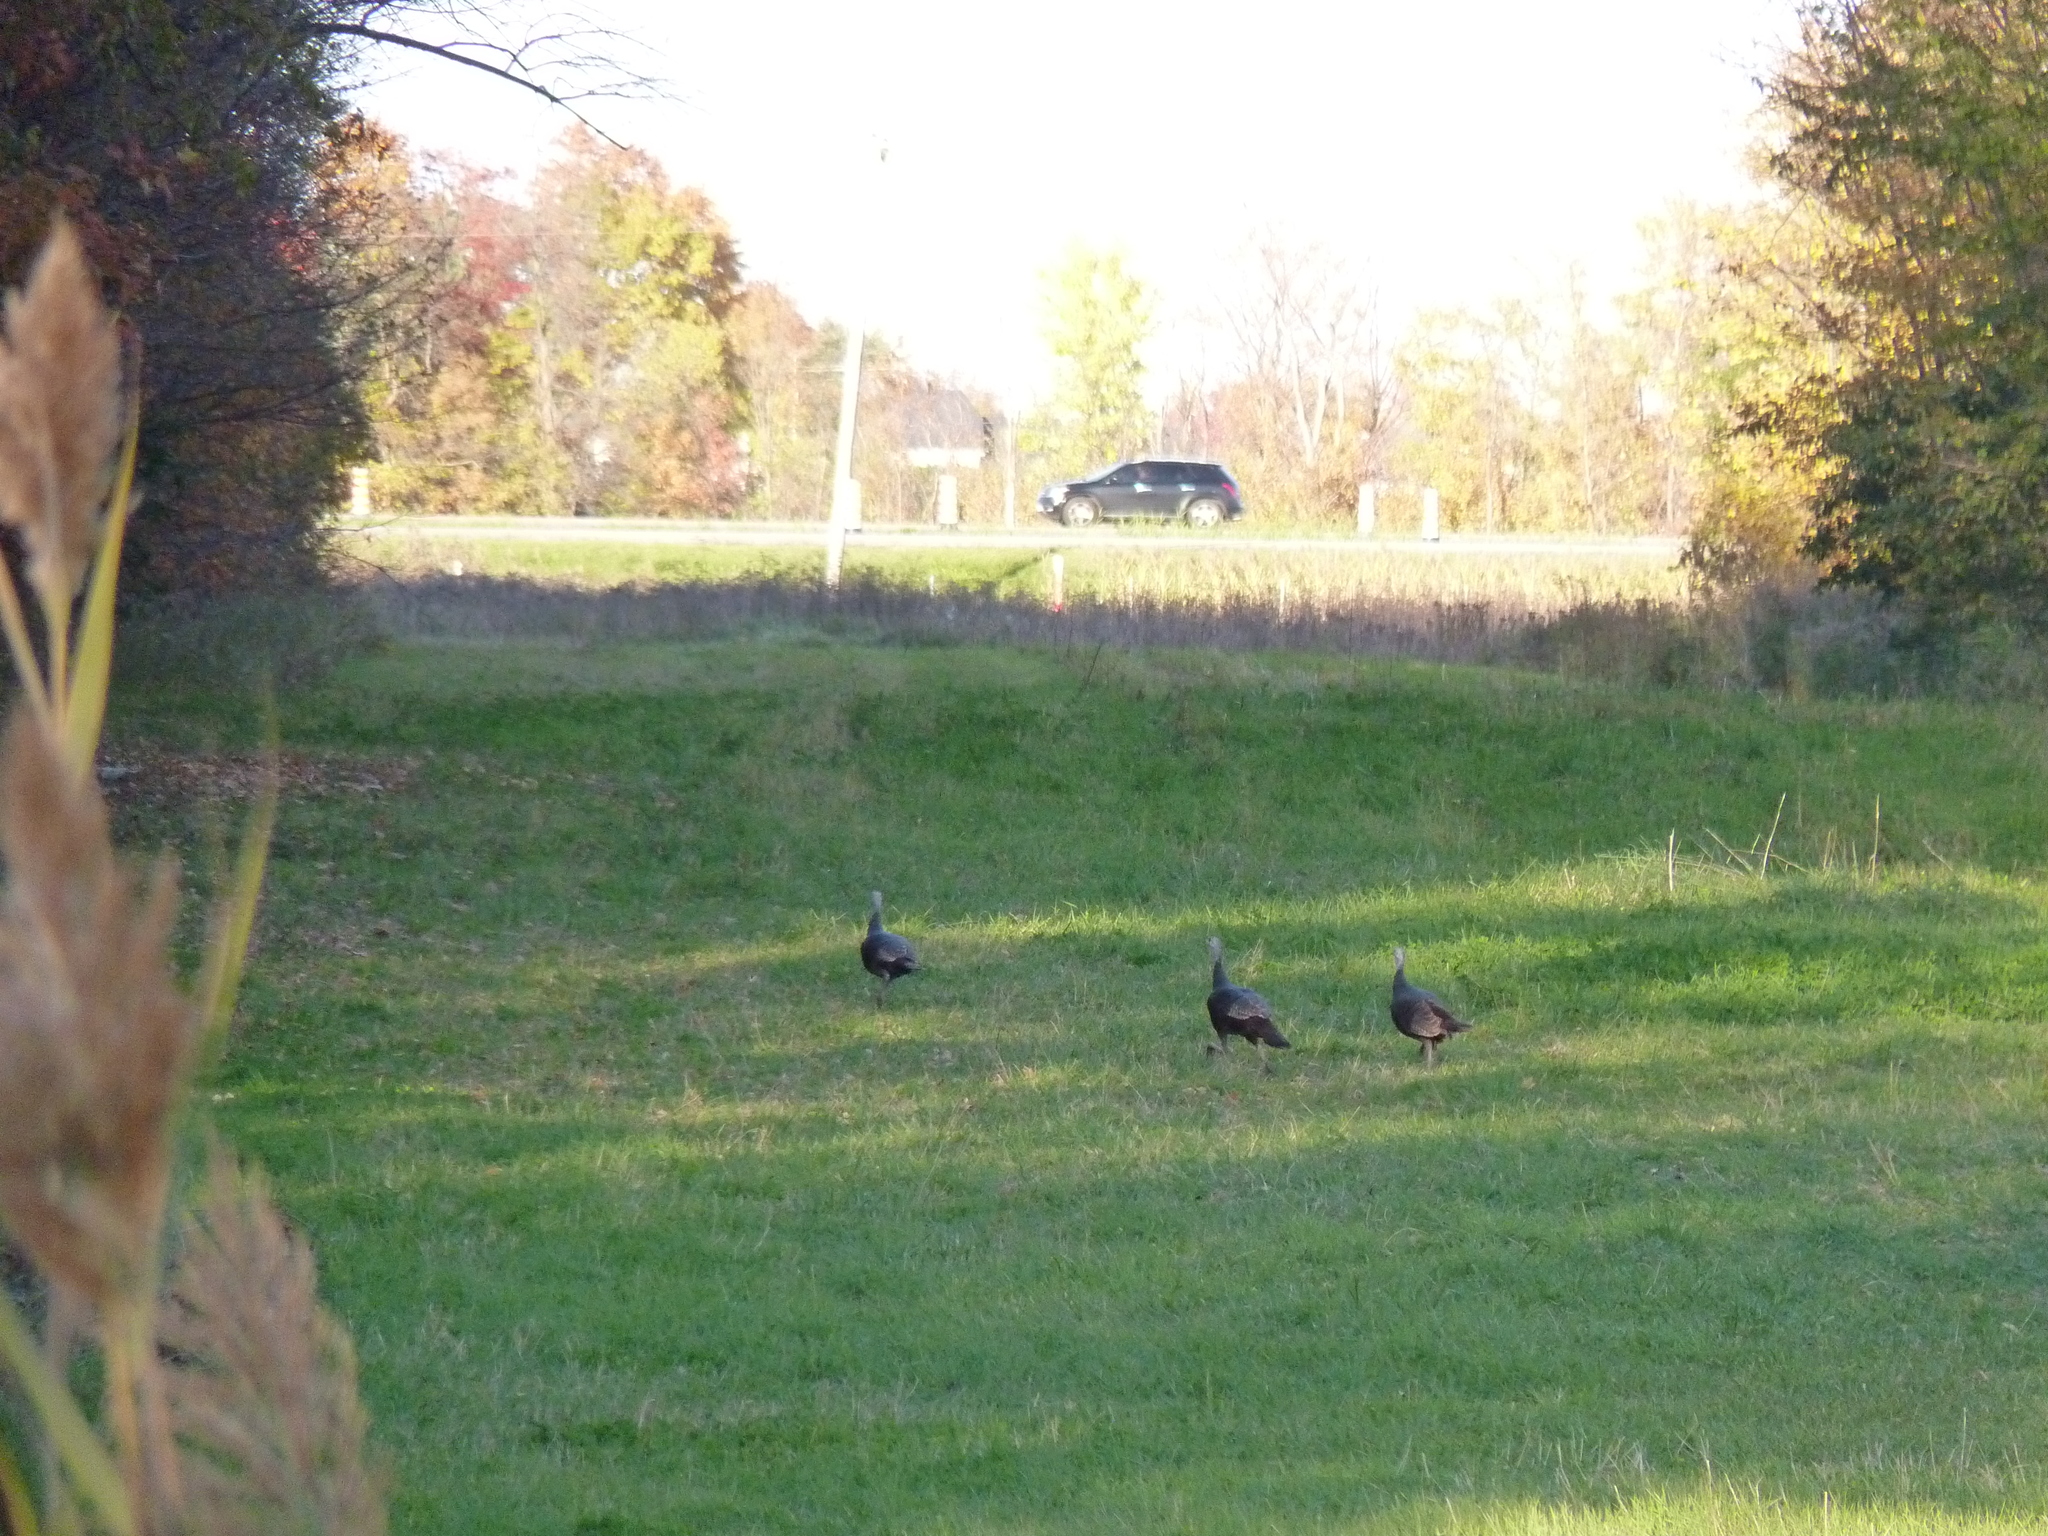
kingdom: Animalia
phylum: Chordata
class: Aves
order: Galliformes
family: Phasianidae
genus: Meleagris
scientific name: Meleagris gallopavo
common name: Wild turkey
